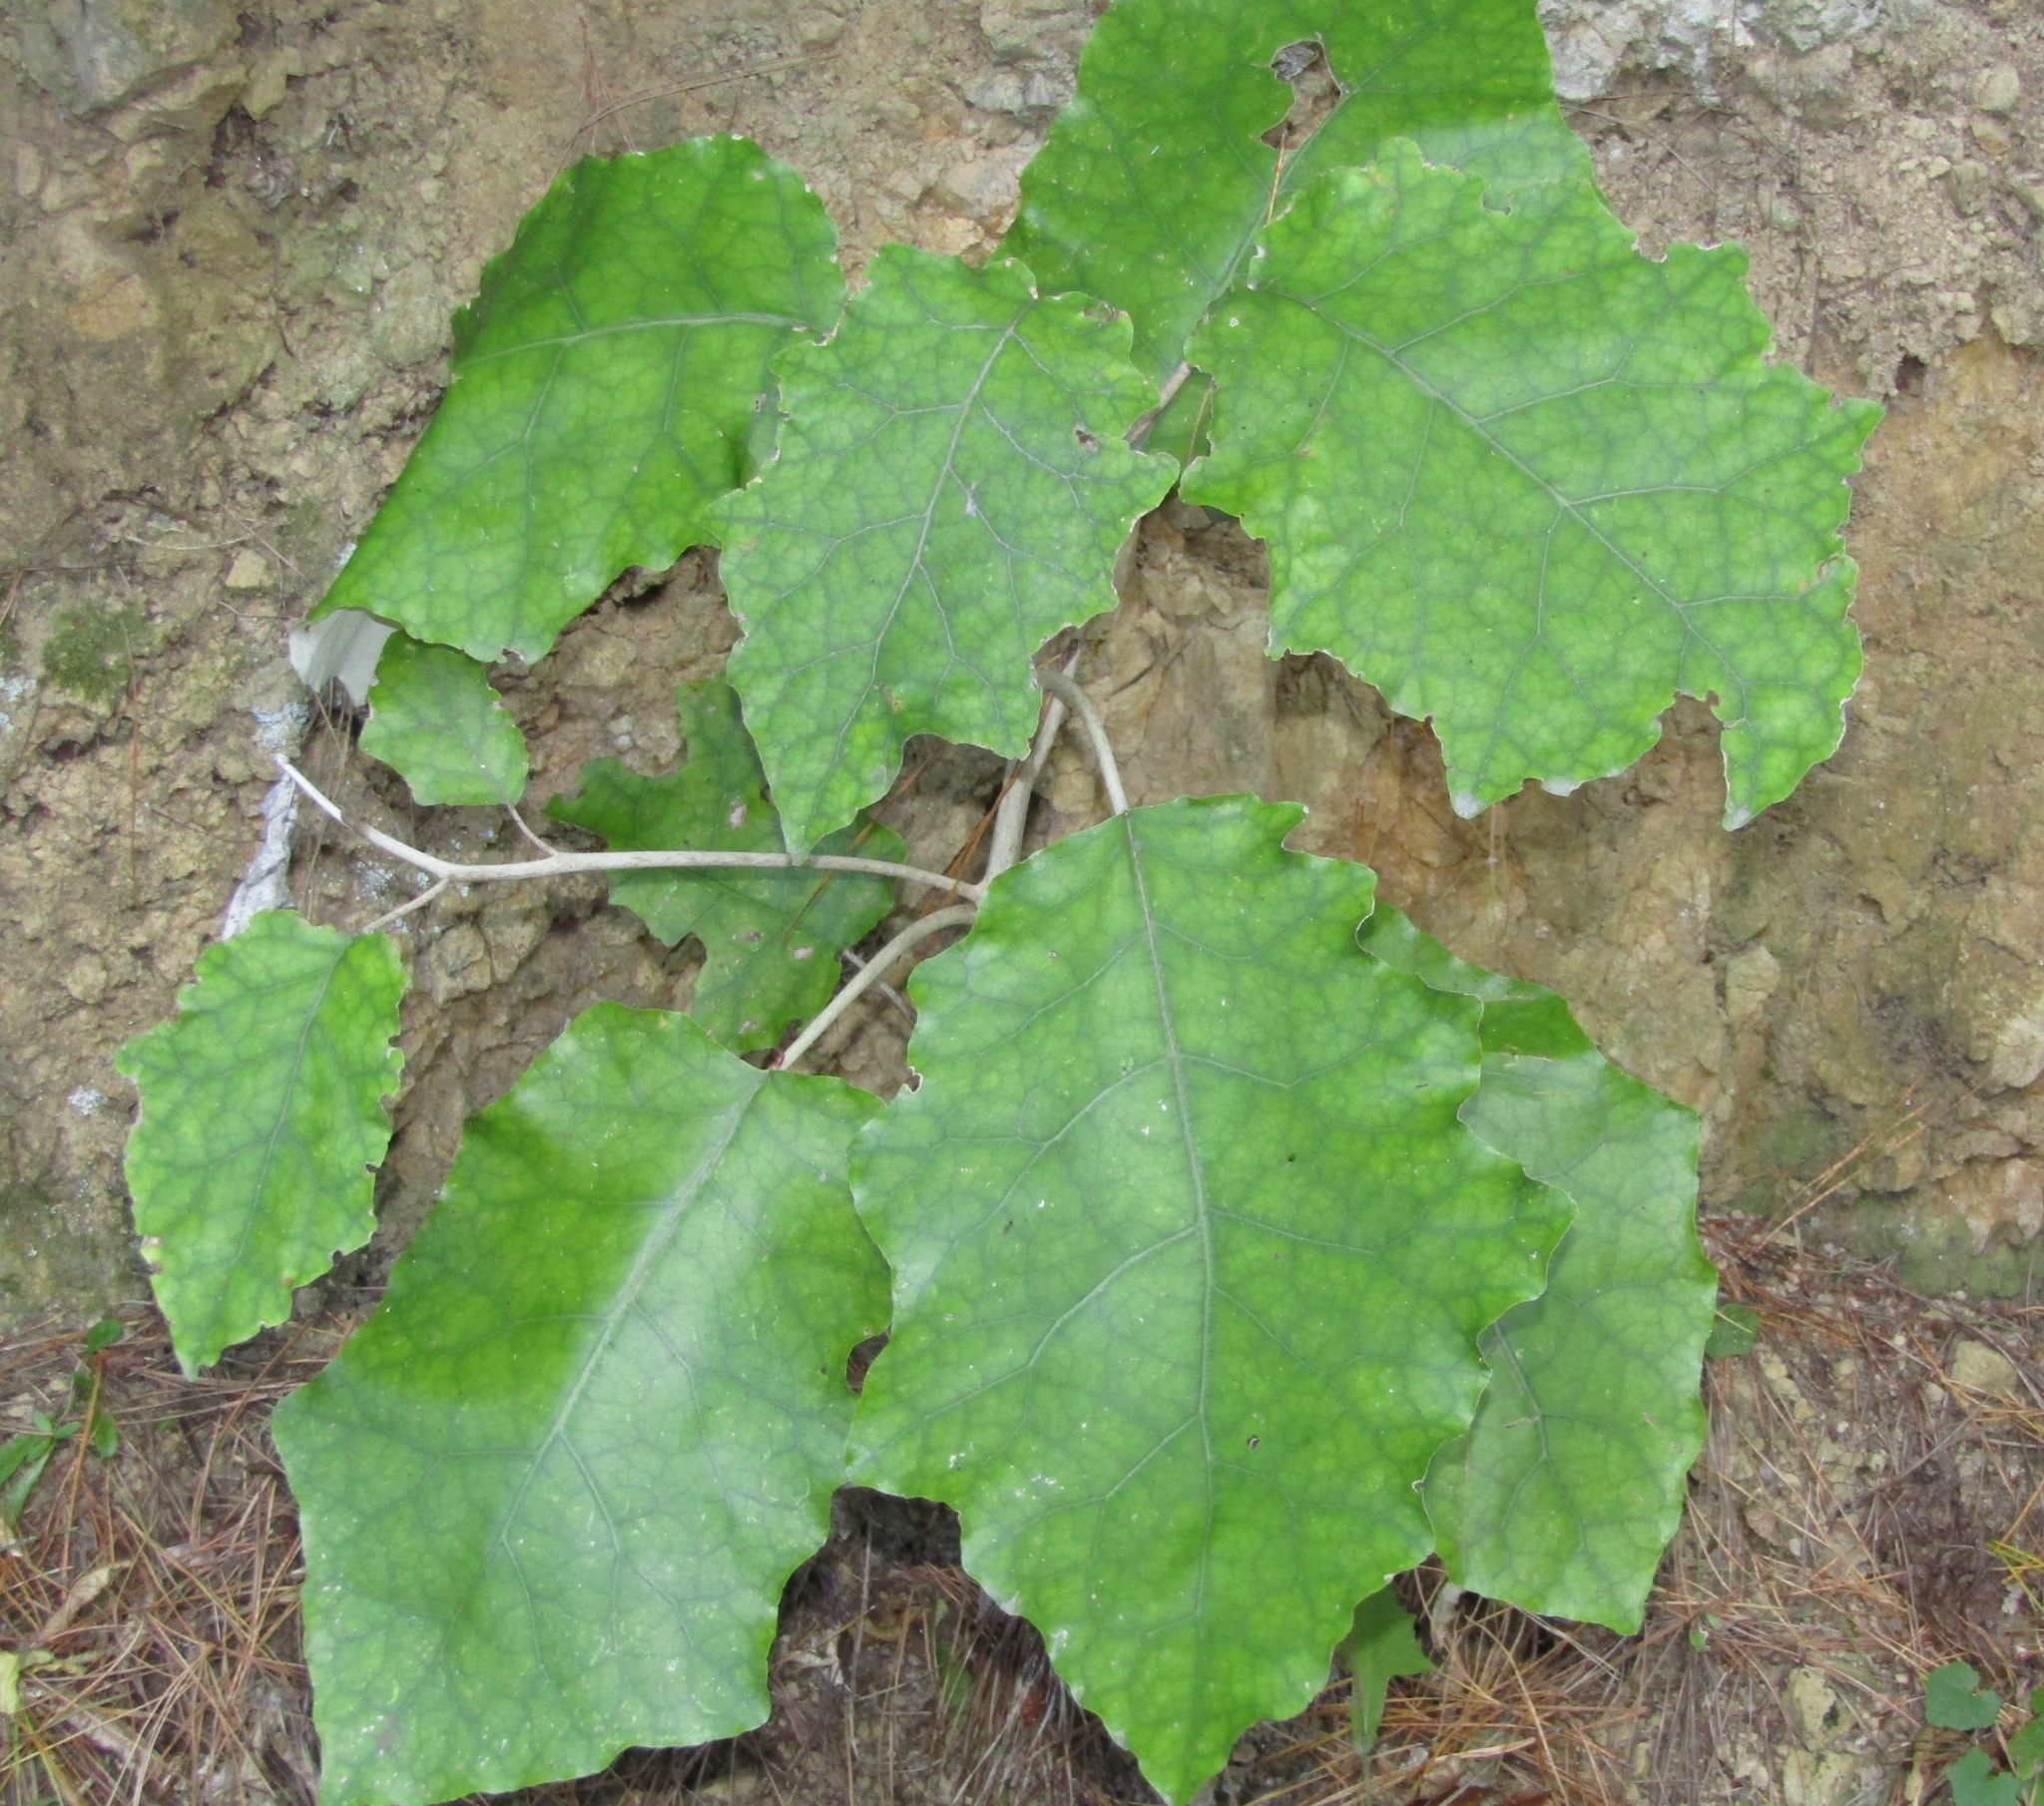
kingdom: Plantae
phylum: Tracheophyta
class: Magnoliopsida
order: Asterales
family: Asteraceae
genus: Brachyglottis
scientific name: Brachyglottis repanda
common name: Hedge ragwort
